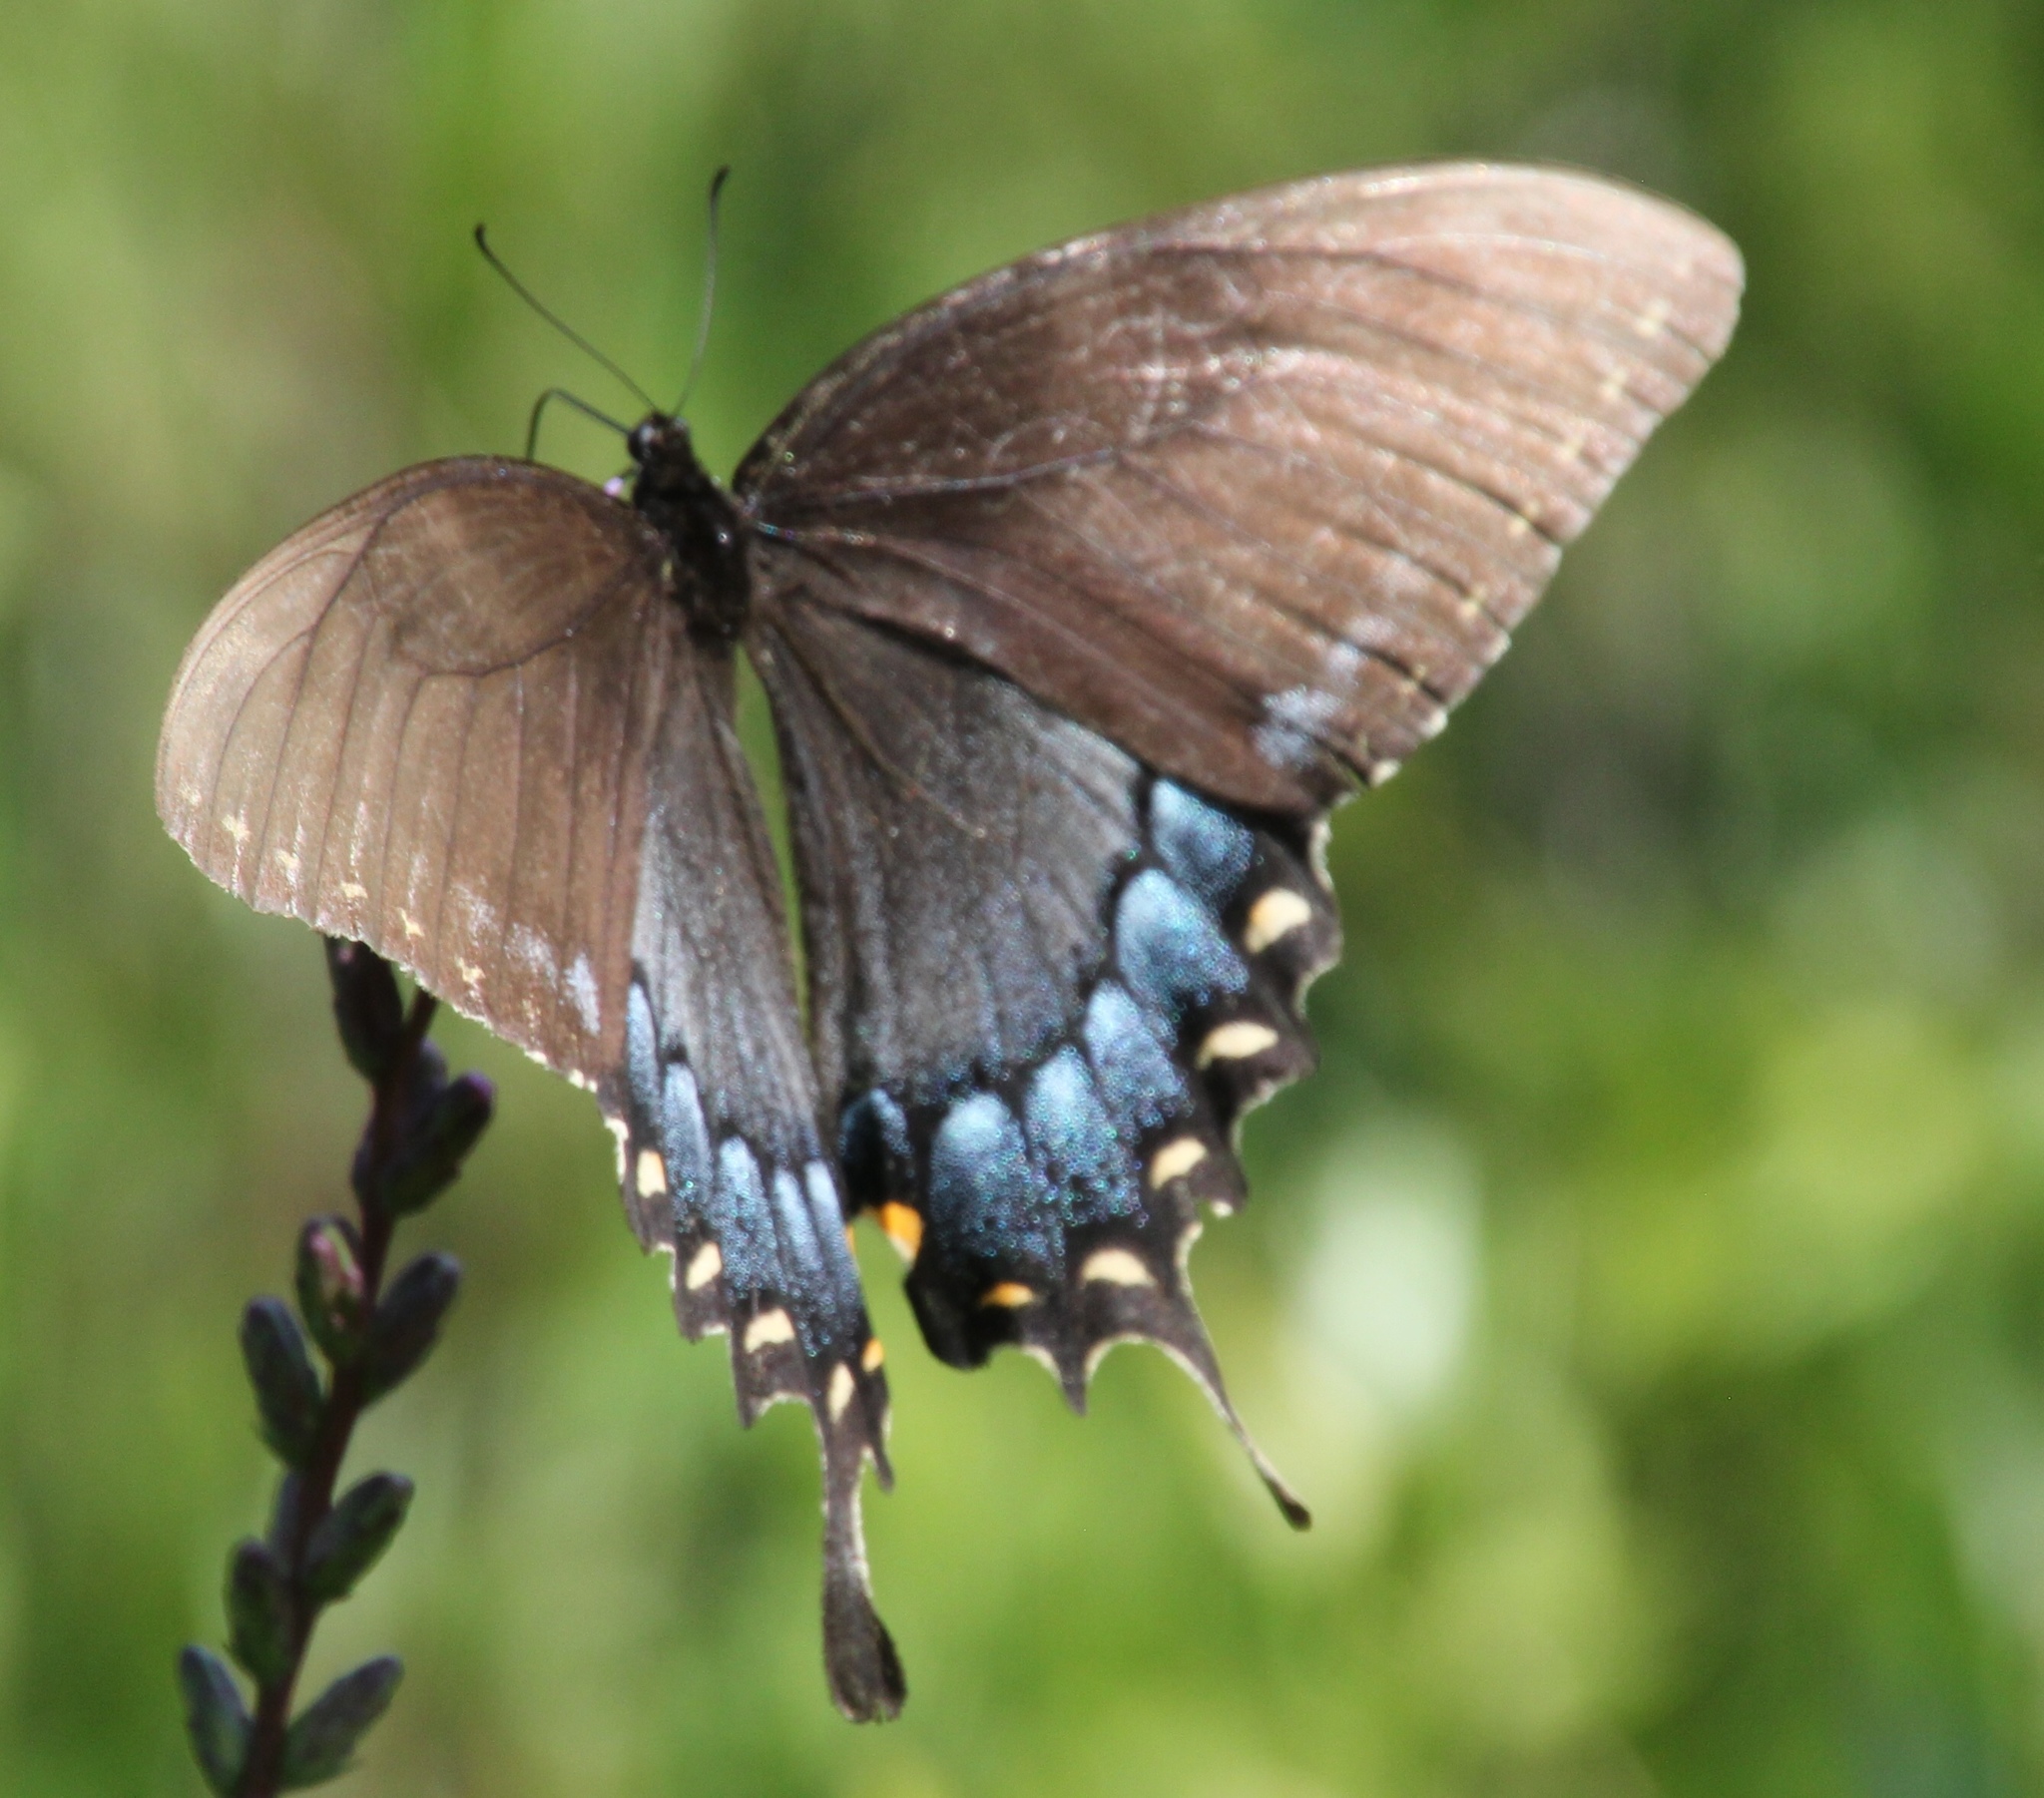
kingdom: Animalia
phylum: Arthropoda
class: Insecta
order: Lepidoptera
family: Papilionidae
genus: Papilio
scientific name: Papilio glaucus
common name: Tiger swallowtail
